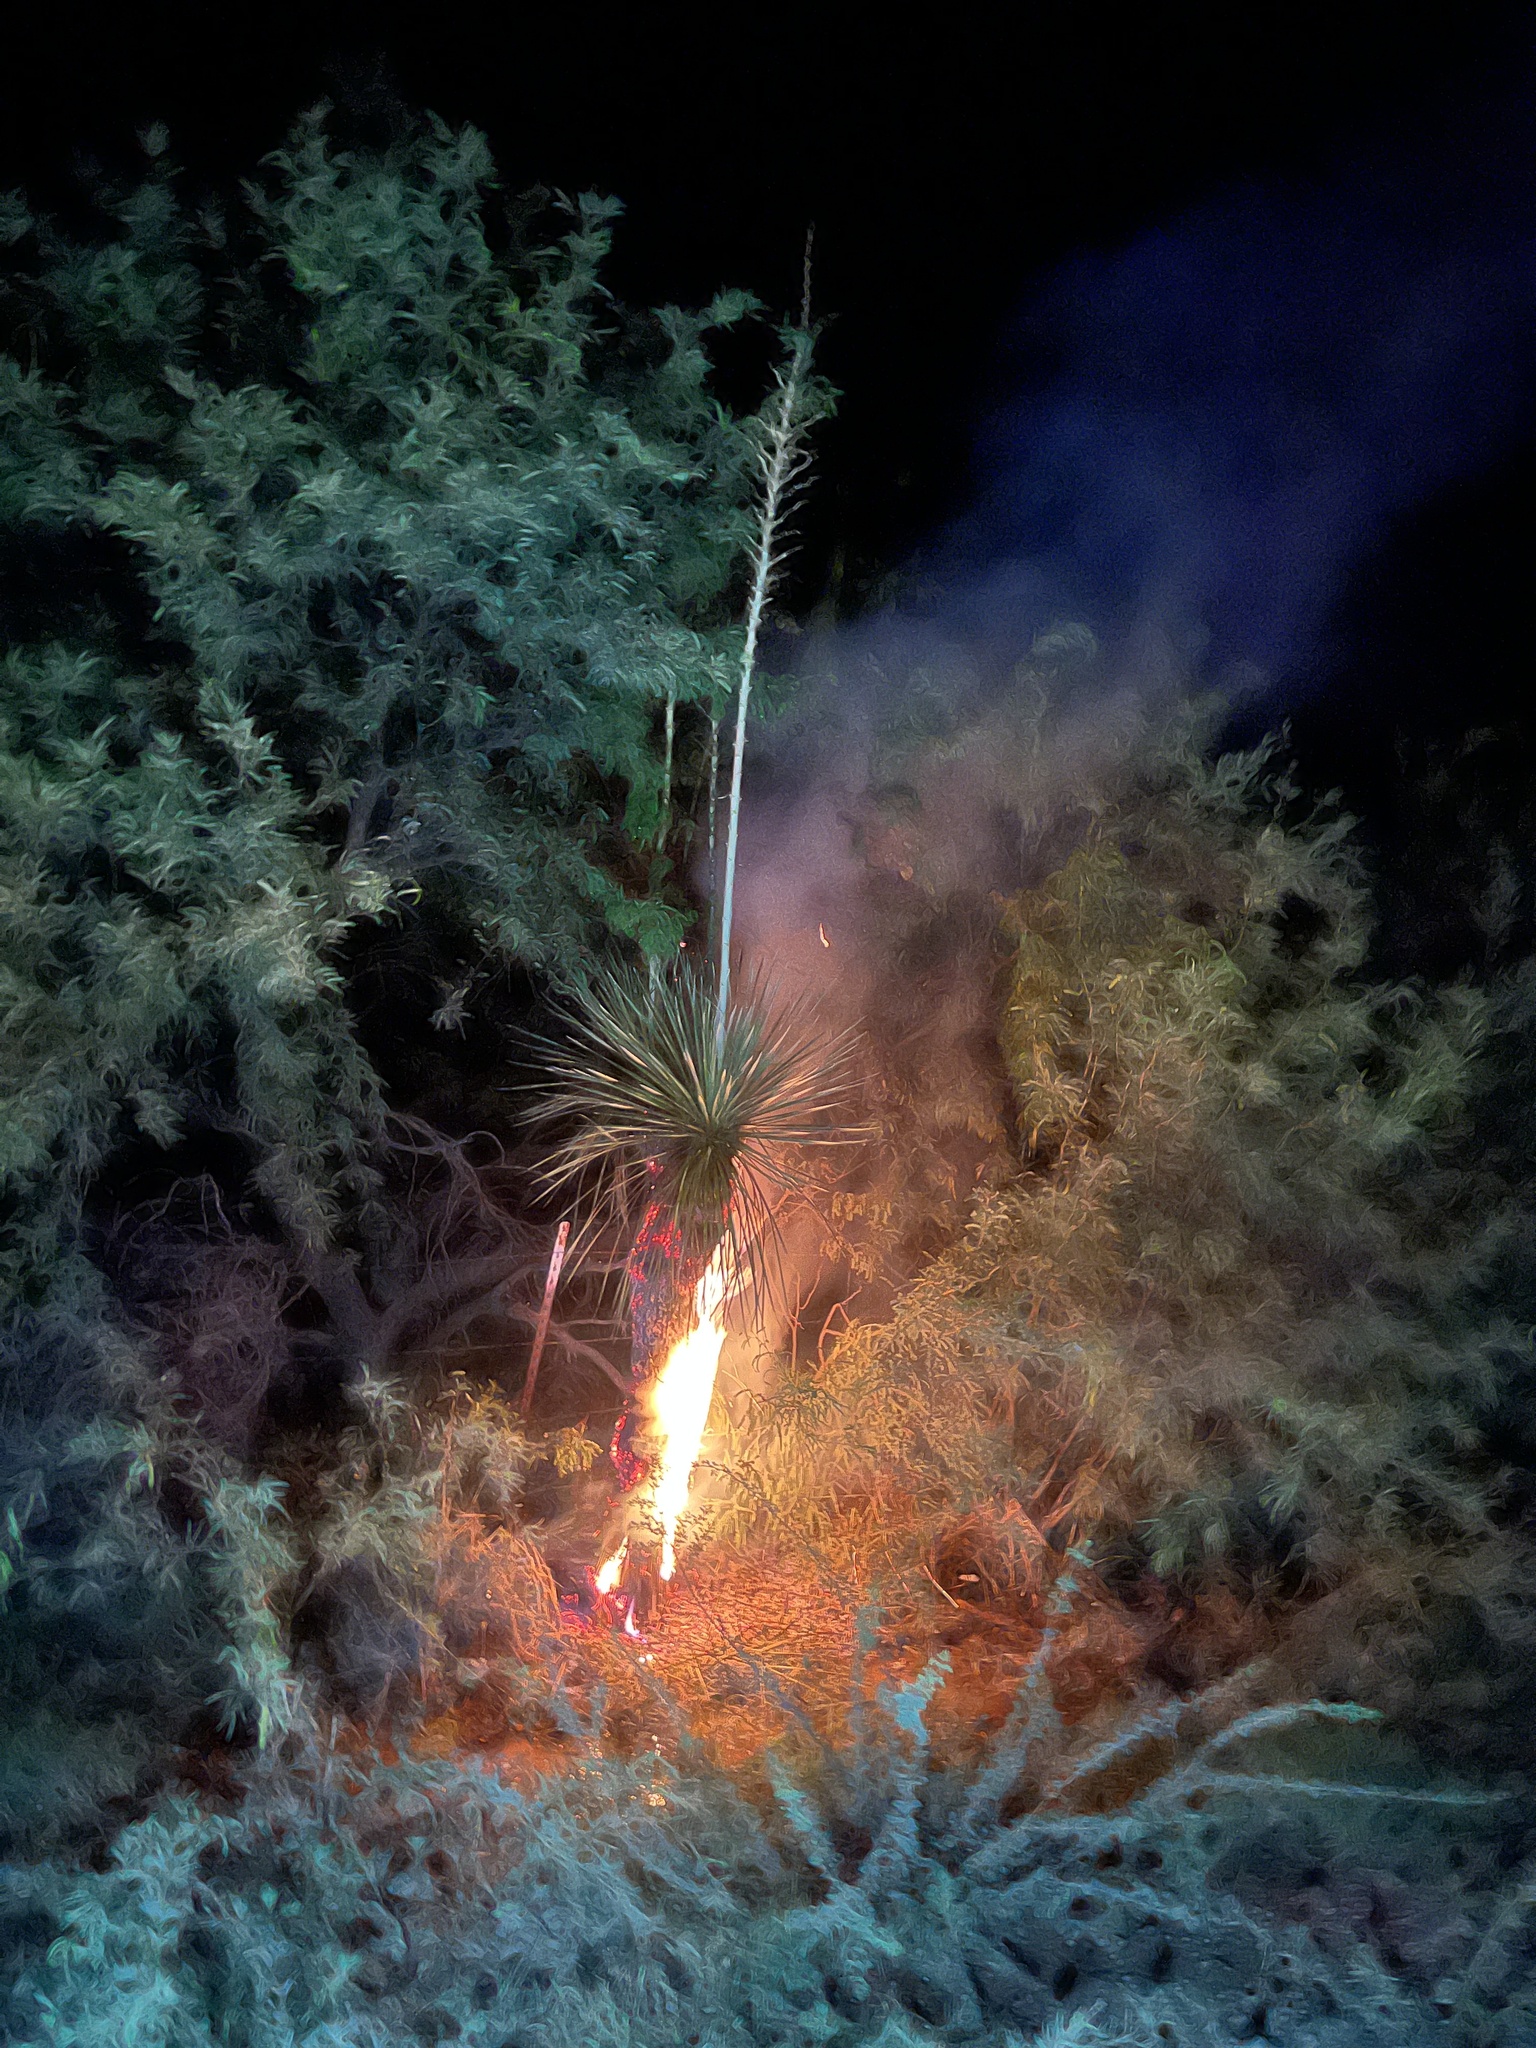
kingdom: Plantae
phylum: Tracheophyta
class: Liliopsida
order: Asparagales
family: Asparagaceae
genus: Yucca
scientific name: Yucca elata
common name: Palmella
